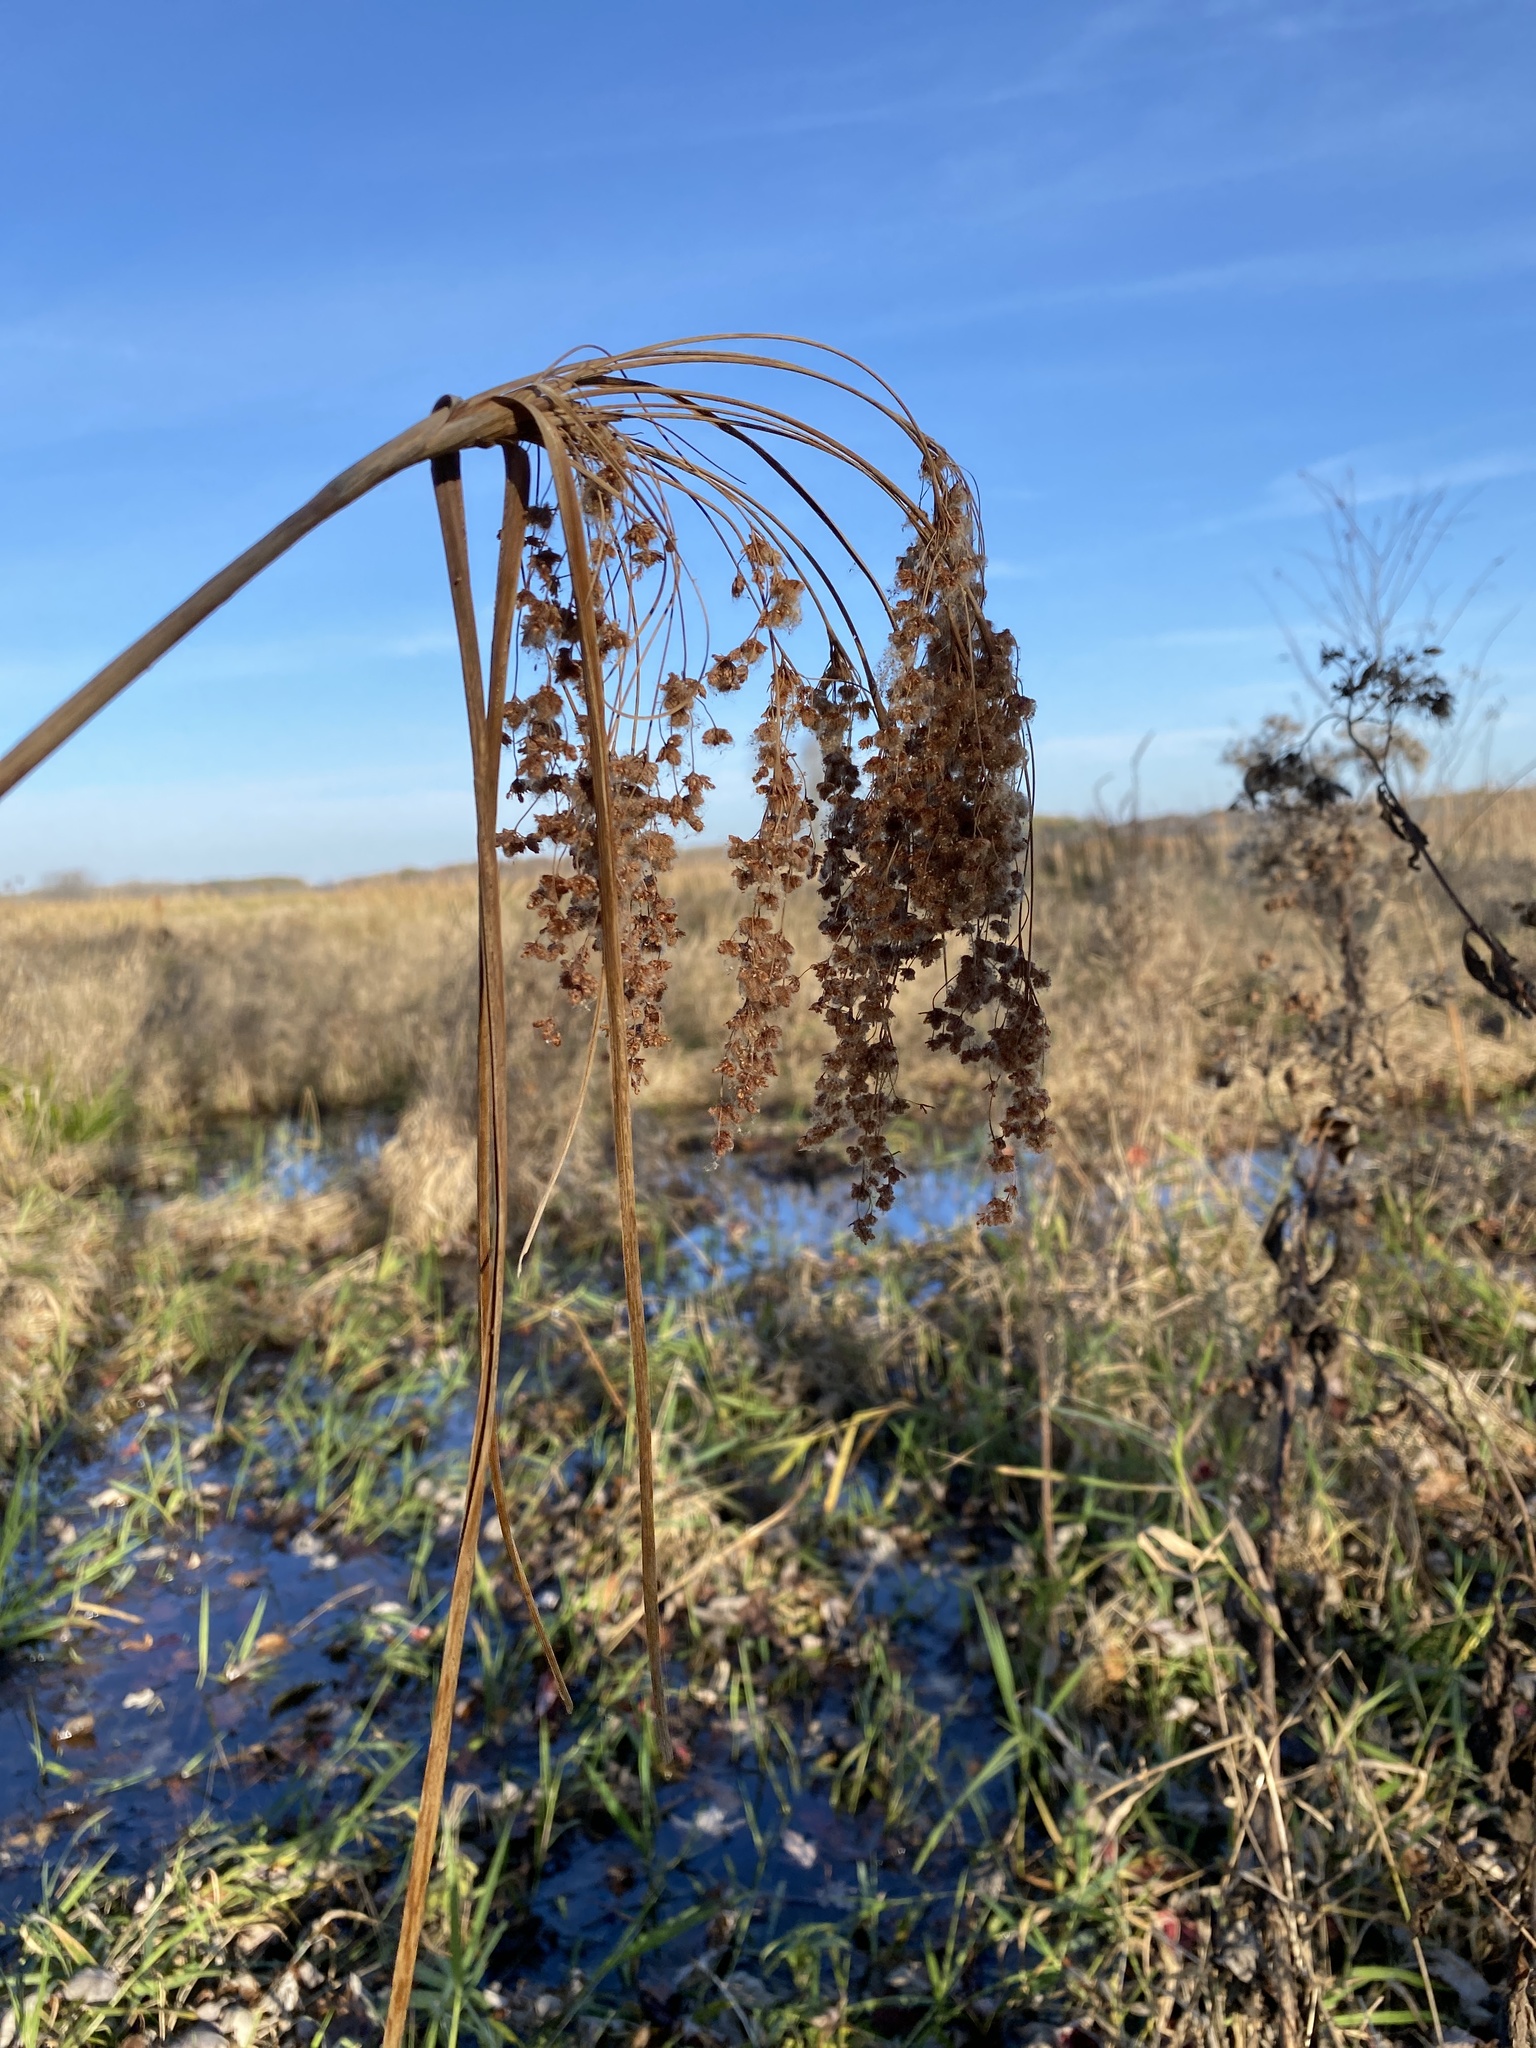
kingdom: Plantae
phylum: Tracheophyta
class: Liliopsida
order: Poales
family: Cyperaceae
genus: Scirpus
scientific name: Scirpus cyperinus
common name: Black-sheathed bulrush
